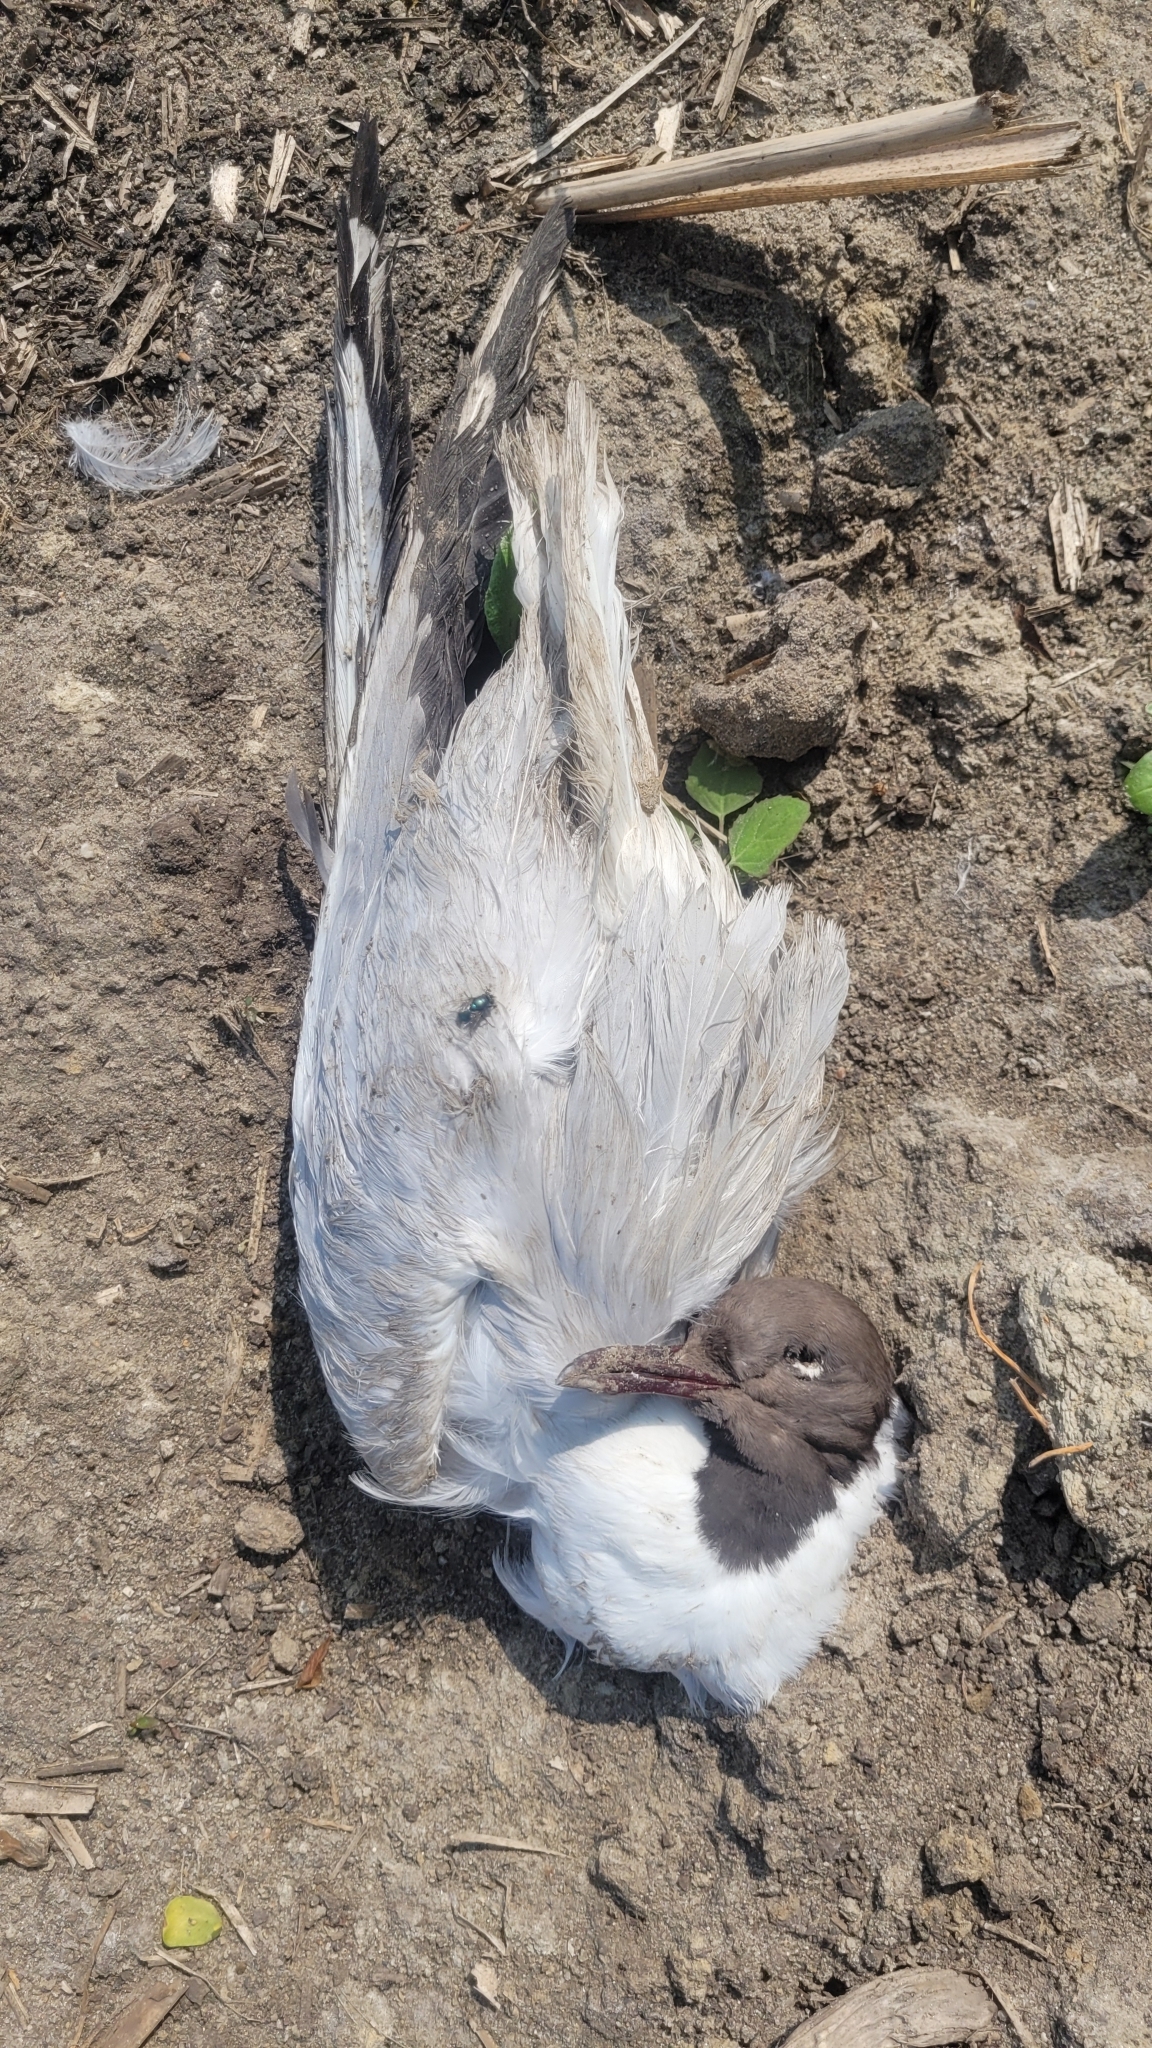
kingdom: Animalia
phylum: Chordata
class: Aves
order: Charadriiformes
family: Laridae
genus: Chroicocephalus
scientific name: Chroicocephalus ridibundus
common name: Black-headed gull
